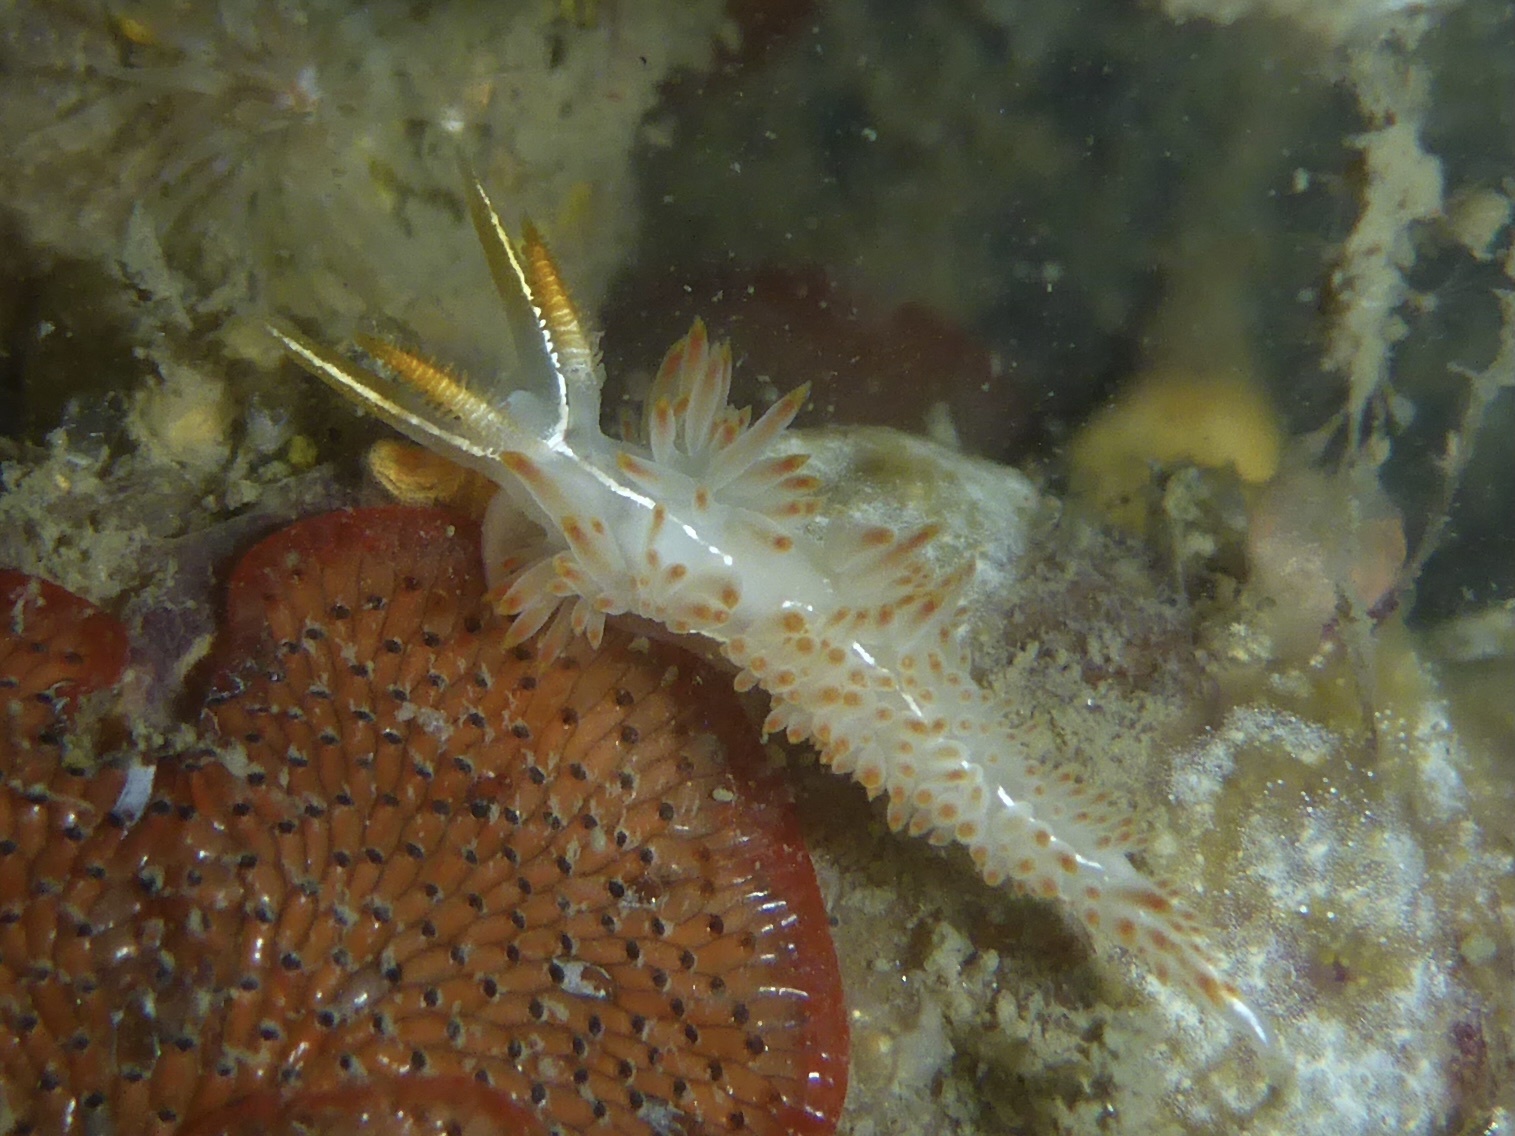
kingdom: Animalia
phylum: Mollusca
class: Gastropoda
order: Nudibranchia
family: Coryphellidae
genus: Coryphella
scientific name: Coryphella trilineata
